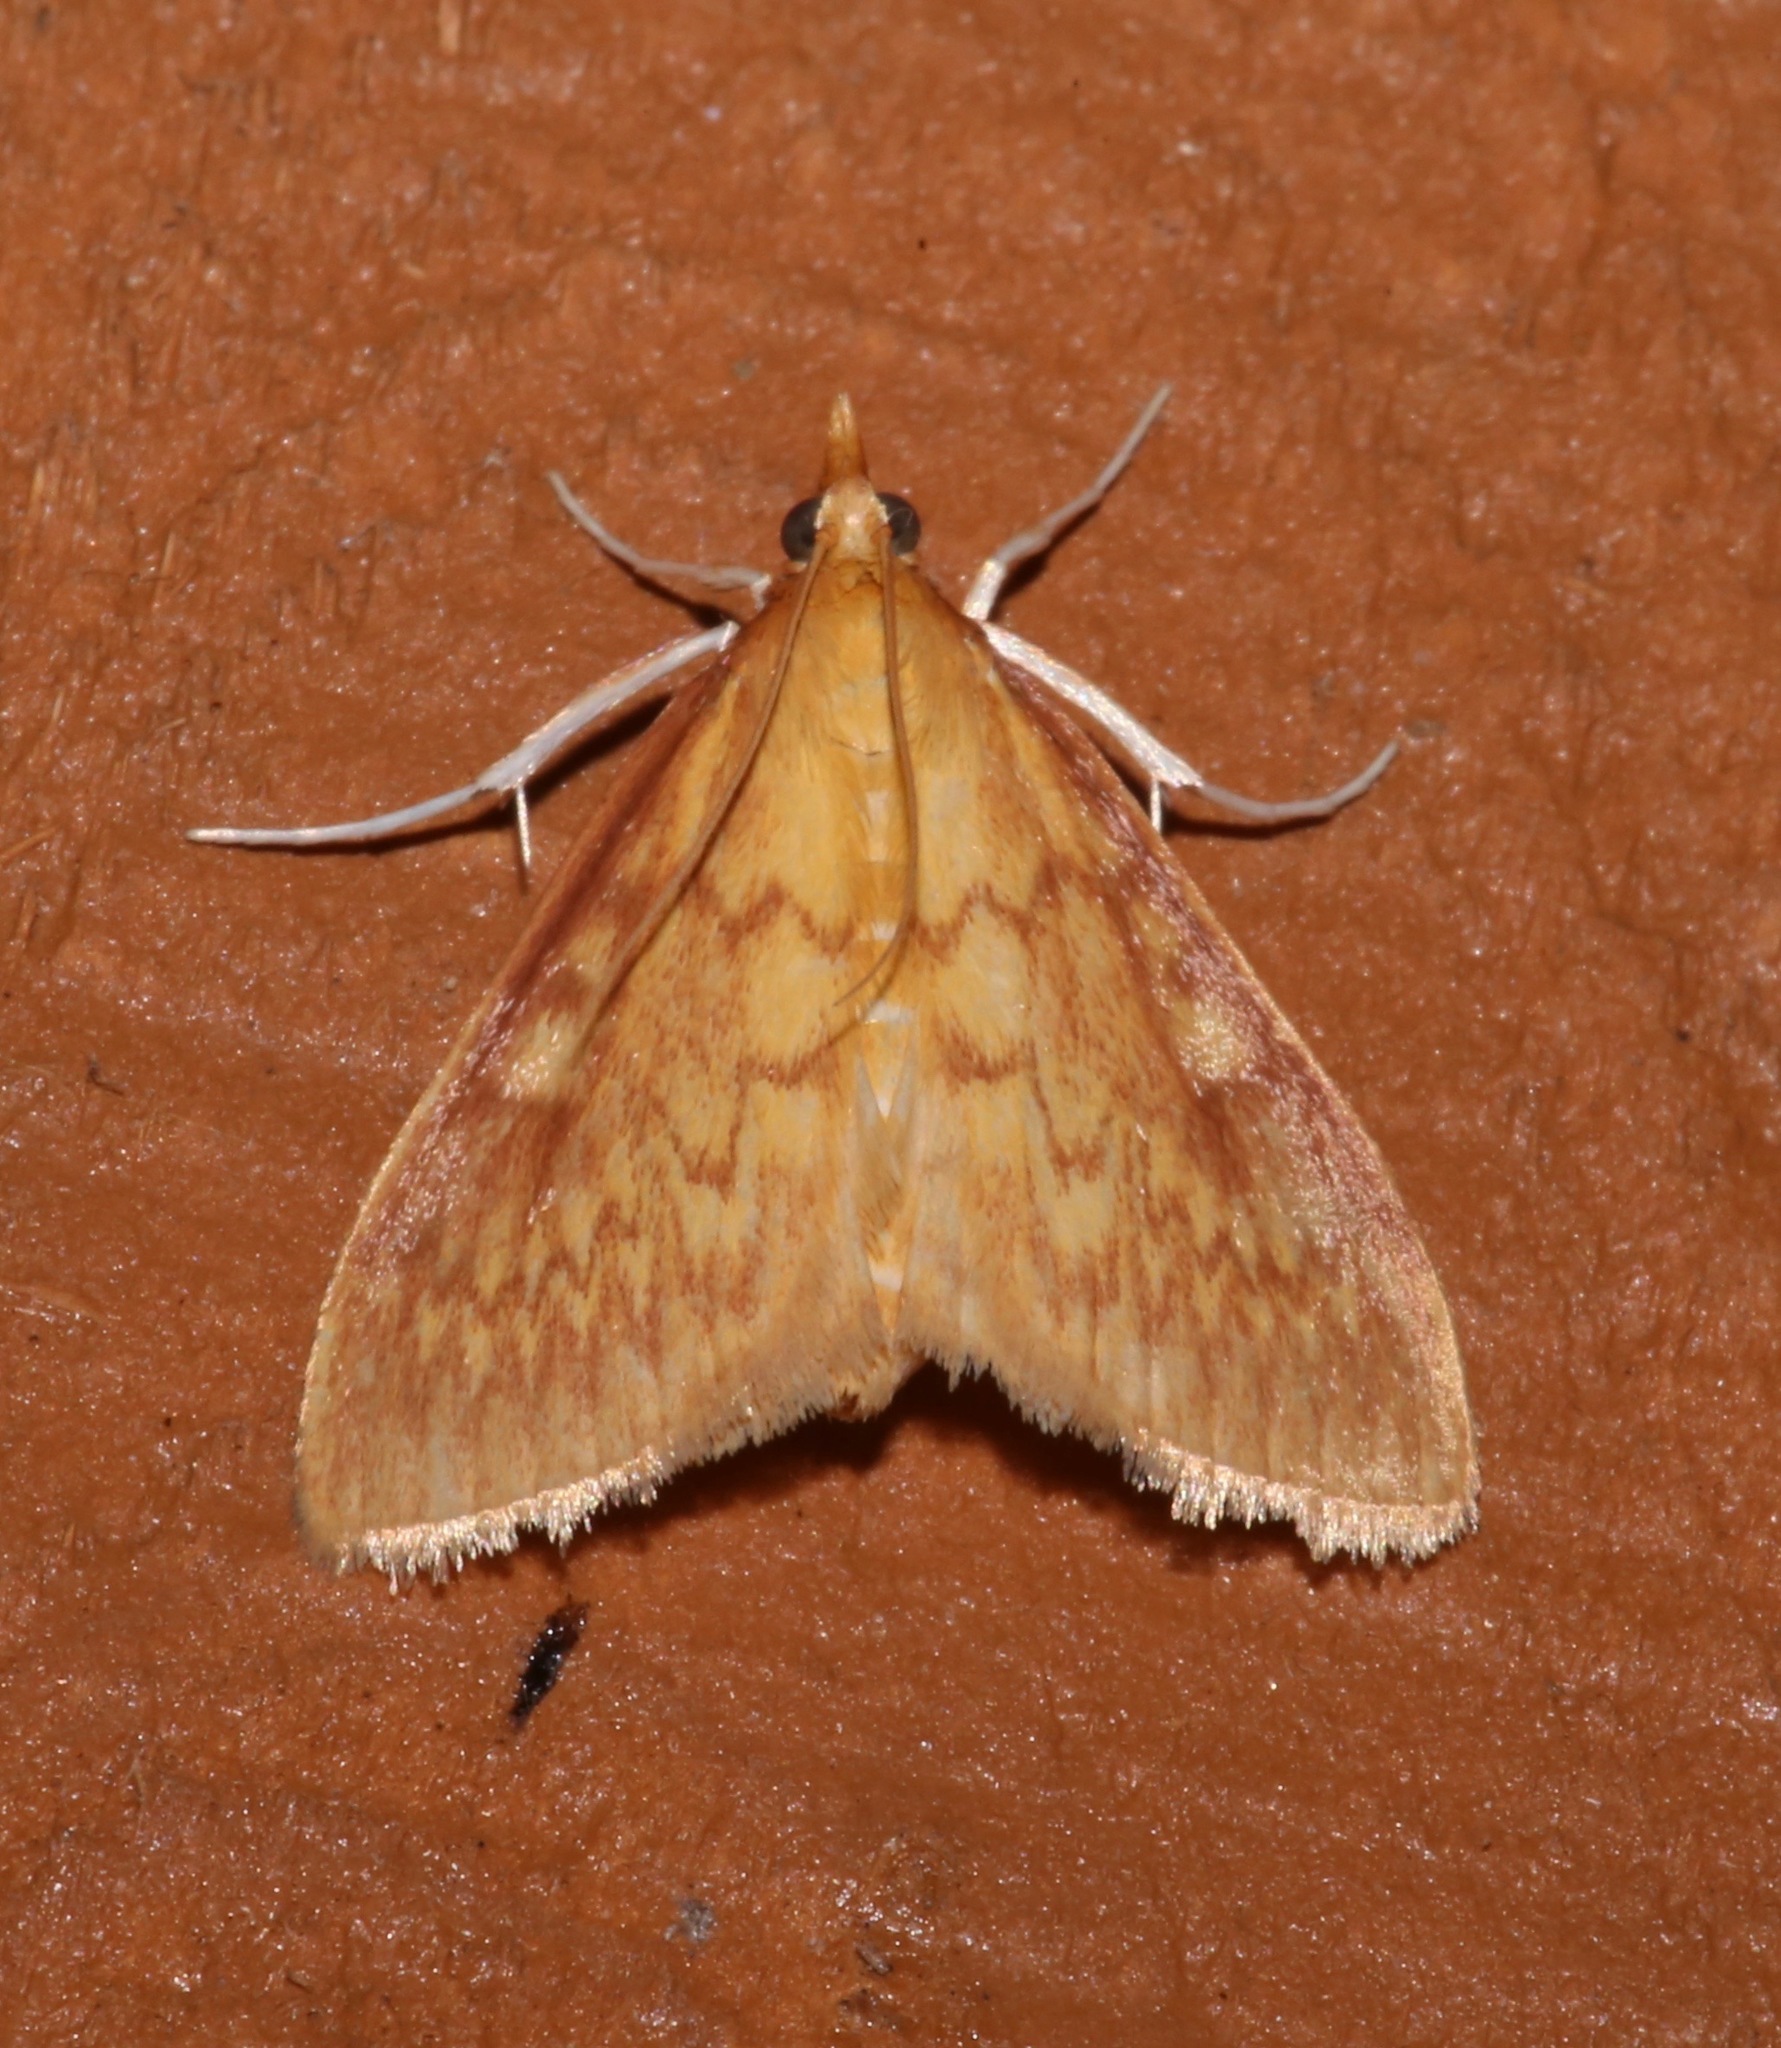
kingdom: Animalia
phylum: Arthropoda
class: Insecta
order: Lepidoptera
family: Crambidae
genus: Ostrinia
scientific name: Ostrinia penitalis
